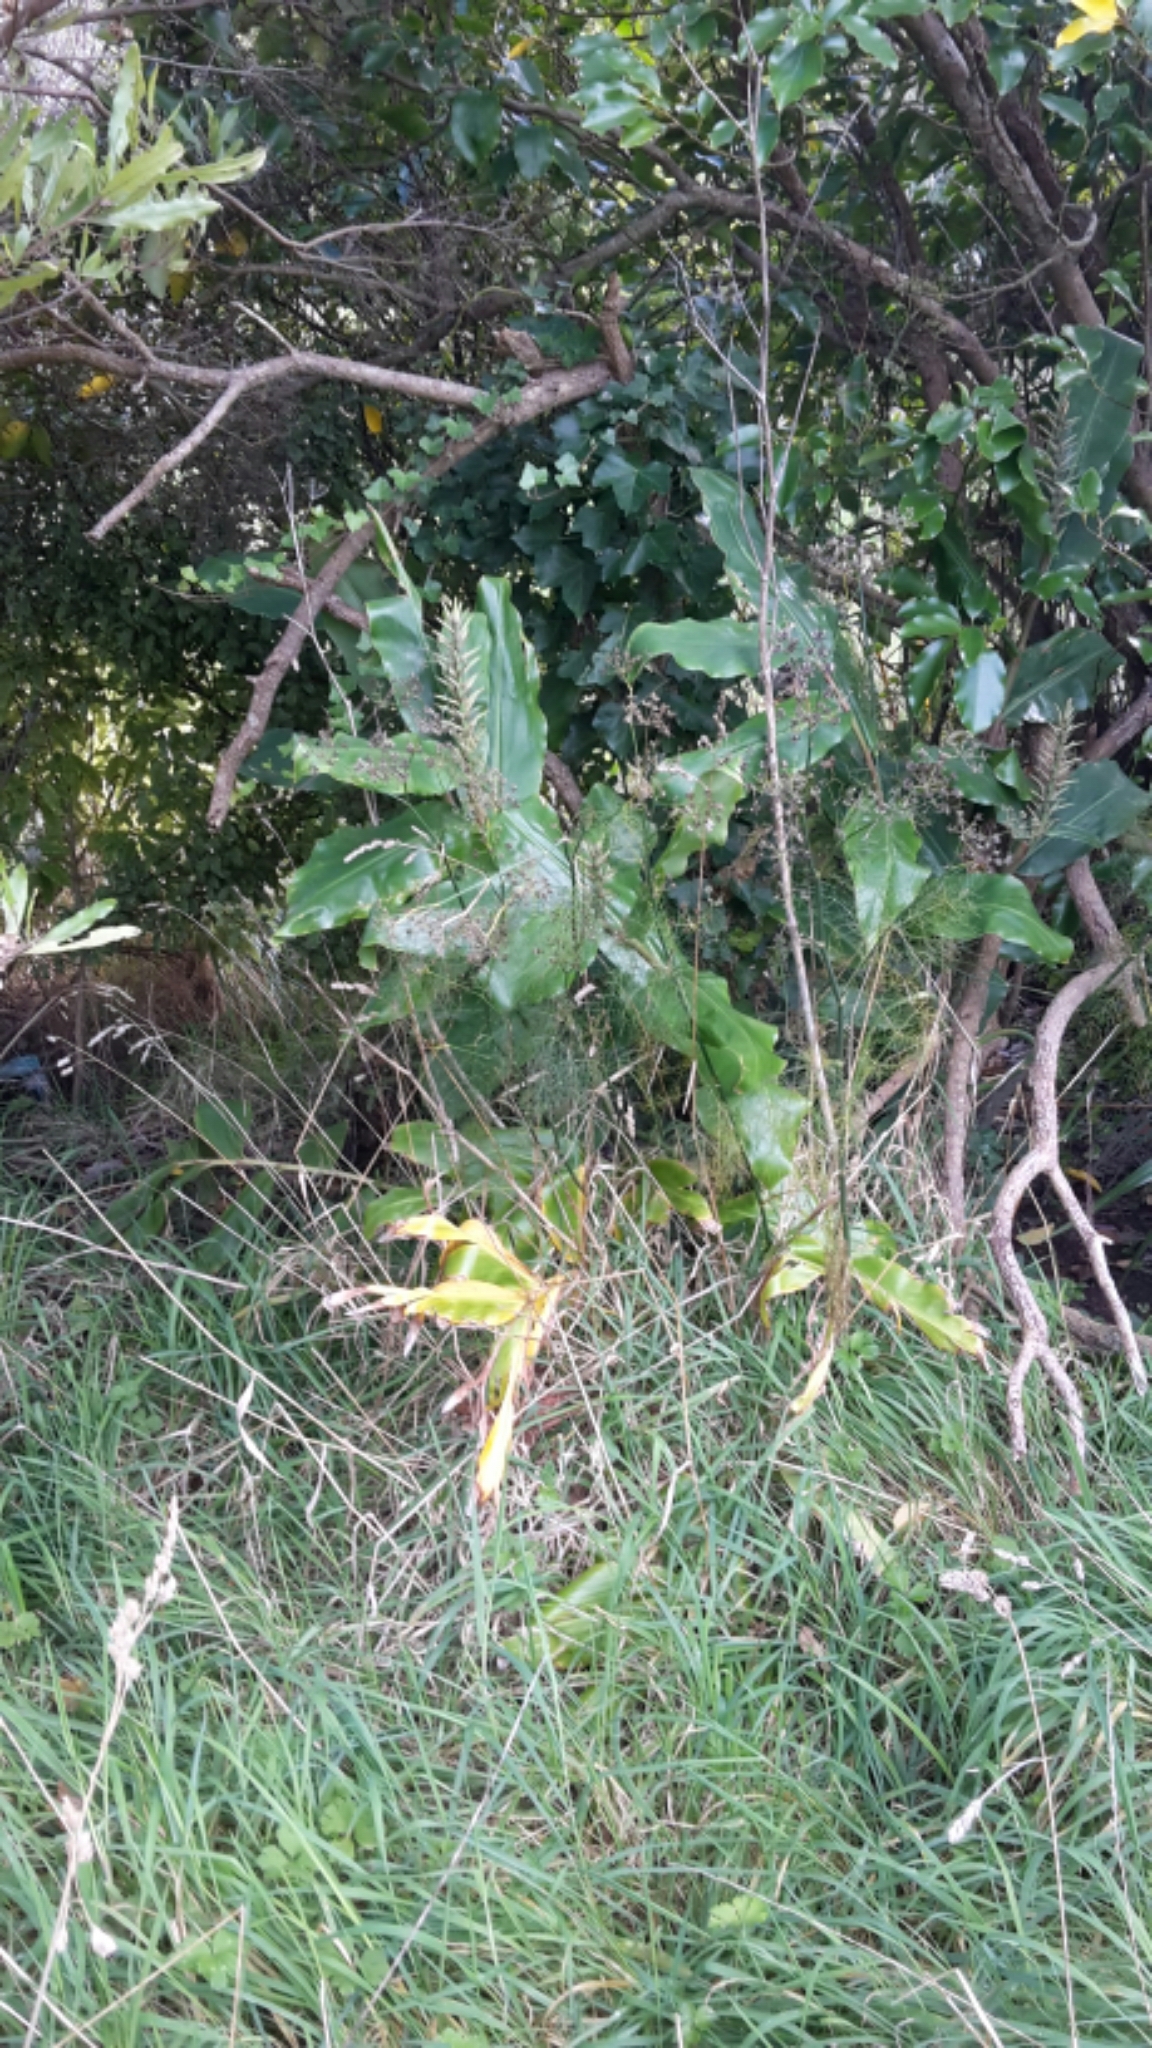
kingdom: Plantae
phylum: Tracheophyta
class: Liliopsida
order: Zingiberales
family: Zingiberaceae
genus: Hedychium
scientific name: Hedychium gardnerianum
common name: Himalayan ginger
